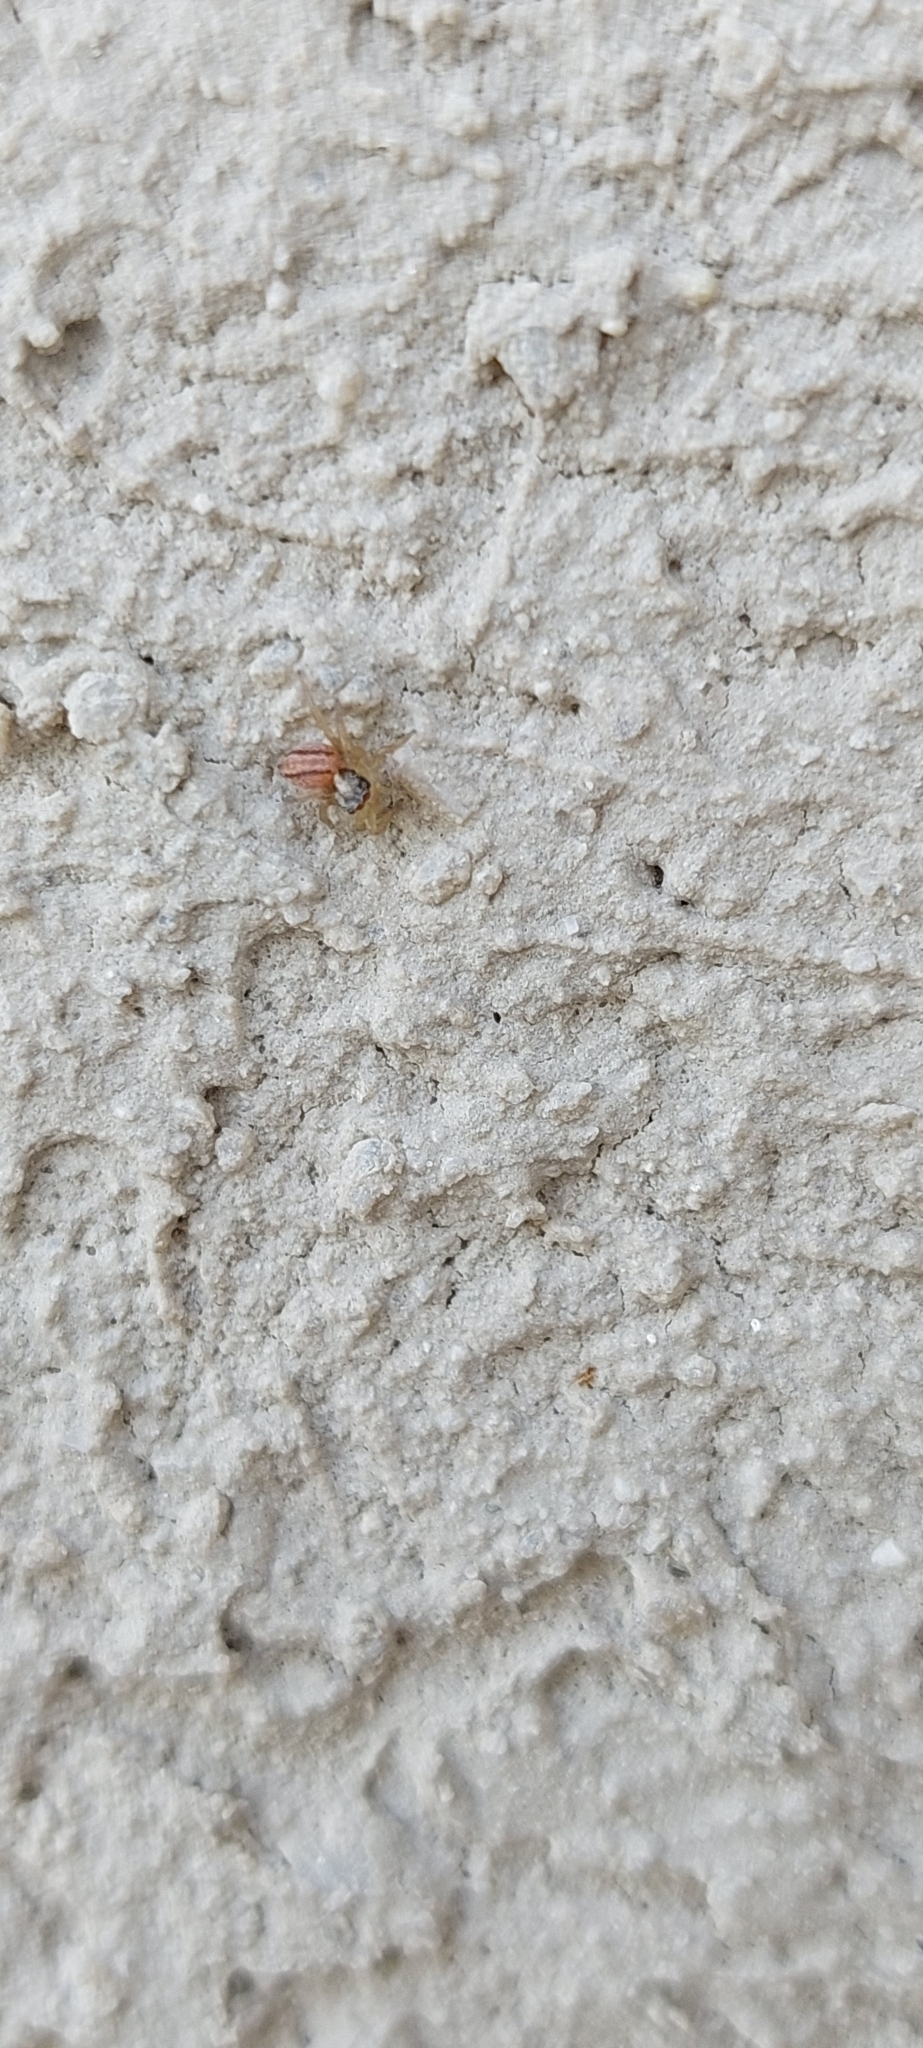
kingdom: Animalia
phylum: Arthropoda
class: Arachnida
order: Araneae
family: Salticidae
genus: Saphrys
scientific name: Saphrys saitiformis
